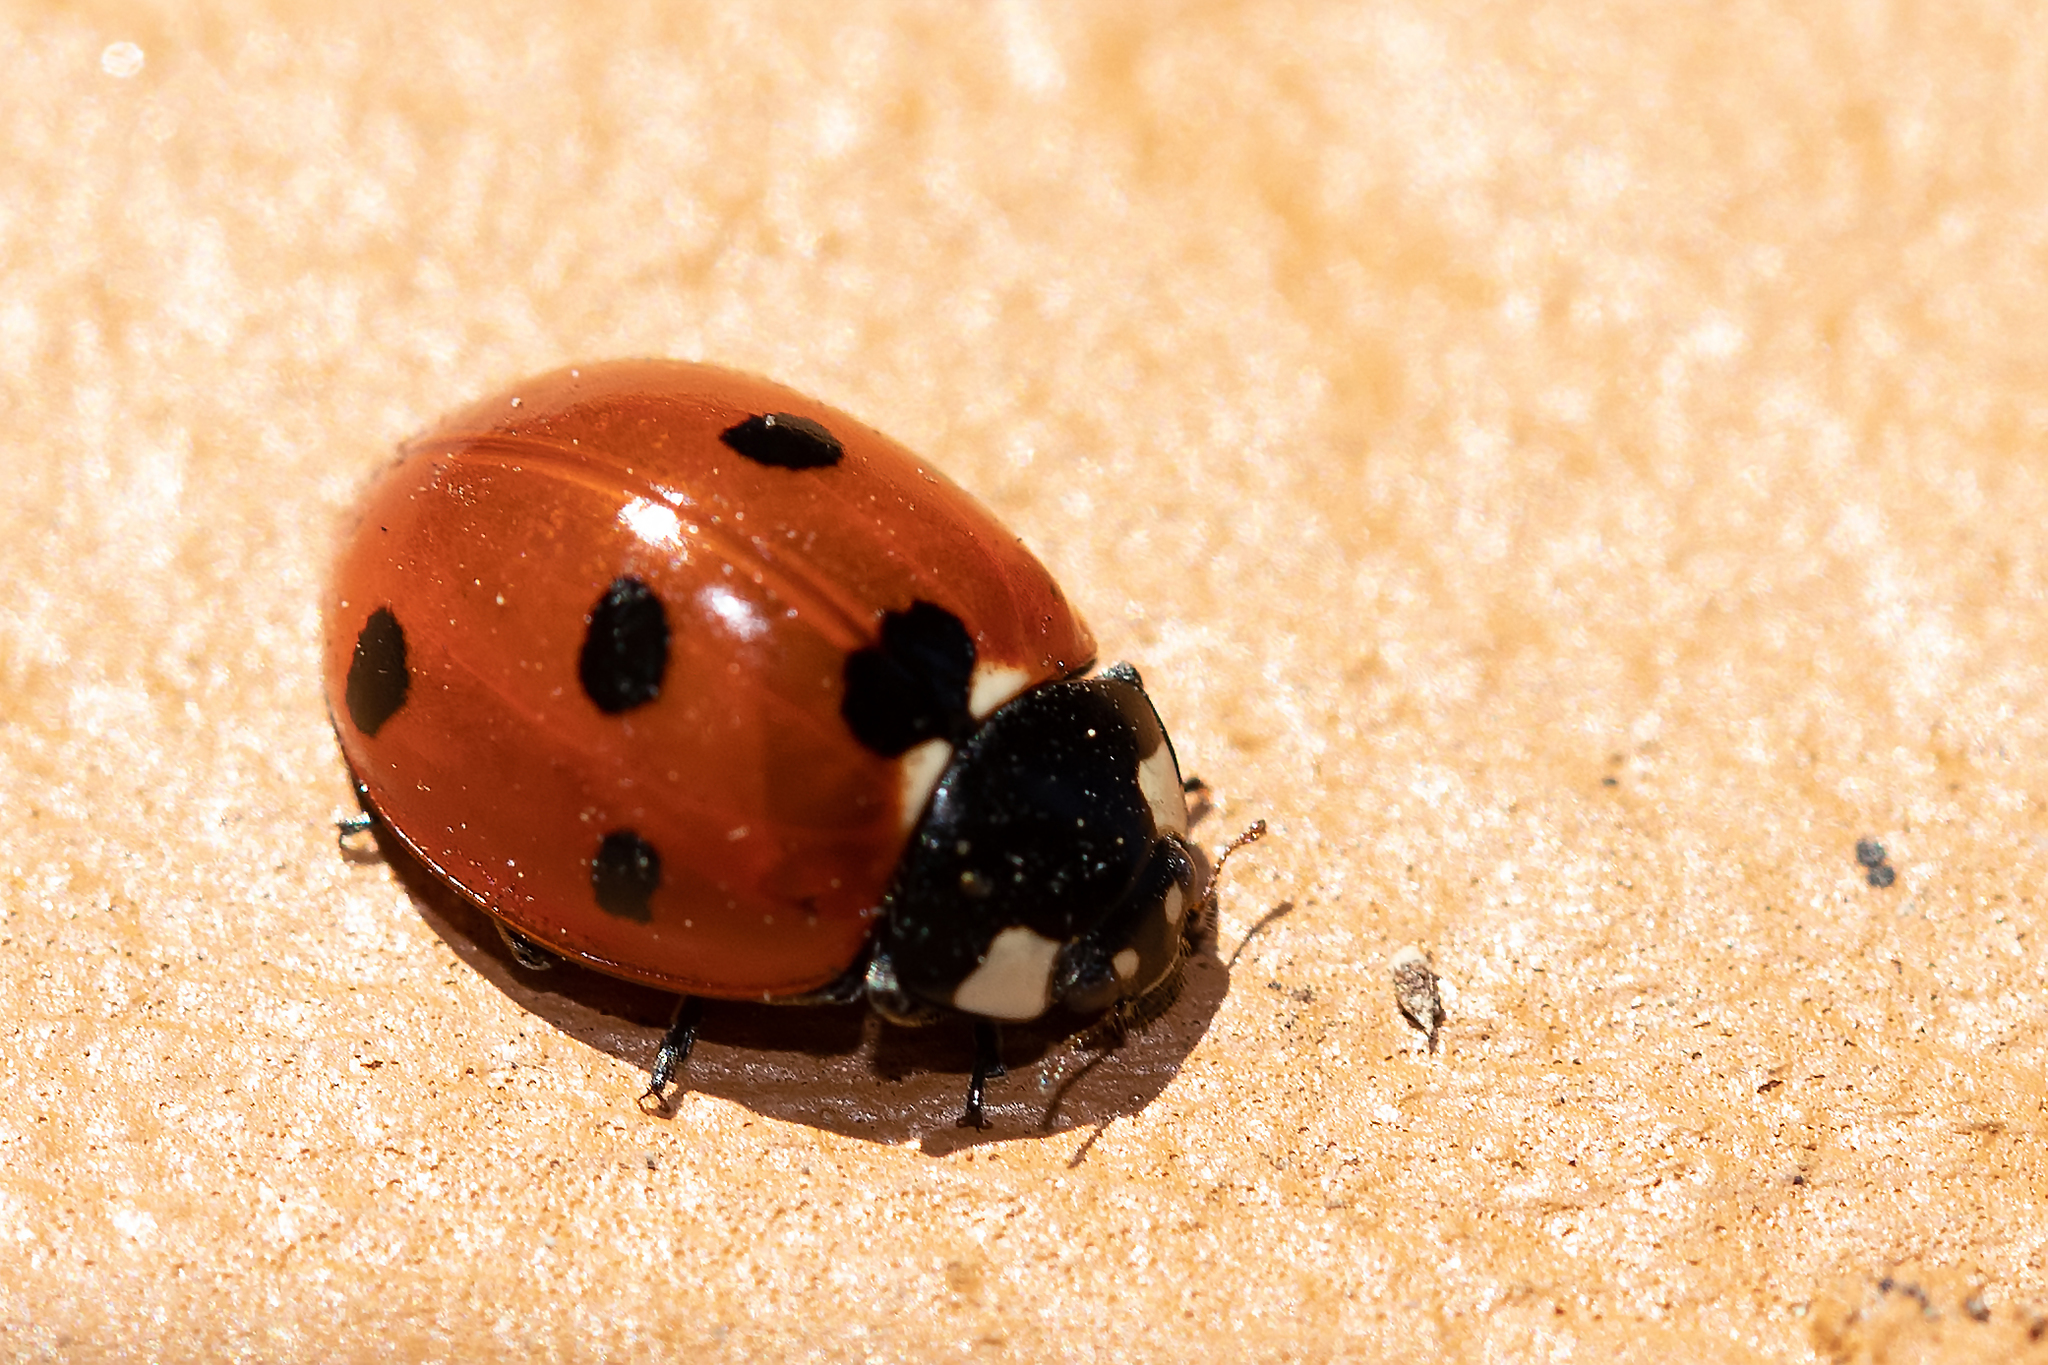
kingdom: Animalia
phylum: Arthropoda
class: Insecta
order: Coleoptera
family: Coccinellidae
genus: Coccinella
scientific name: Coccinella septempunctata
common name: Sevenspotted lady beetle
